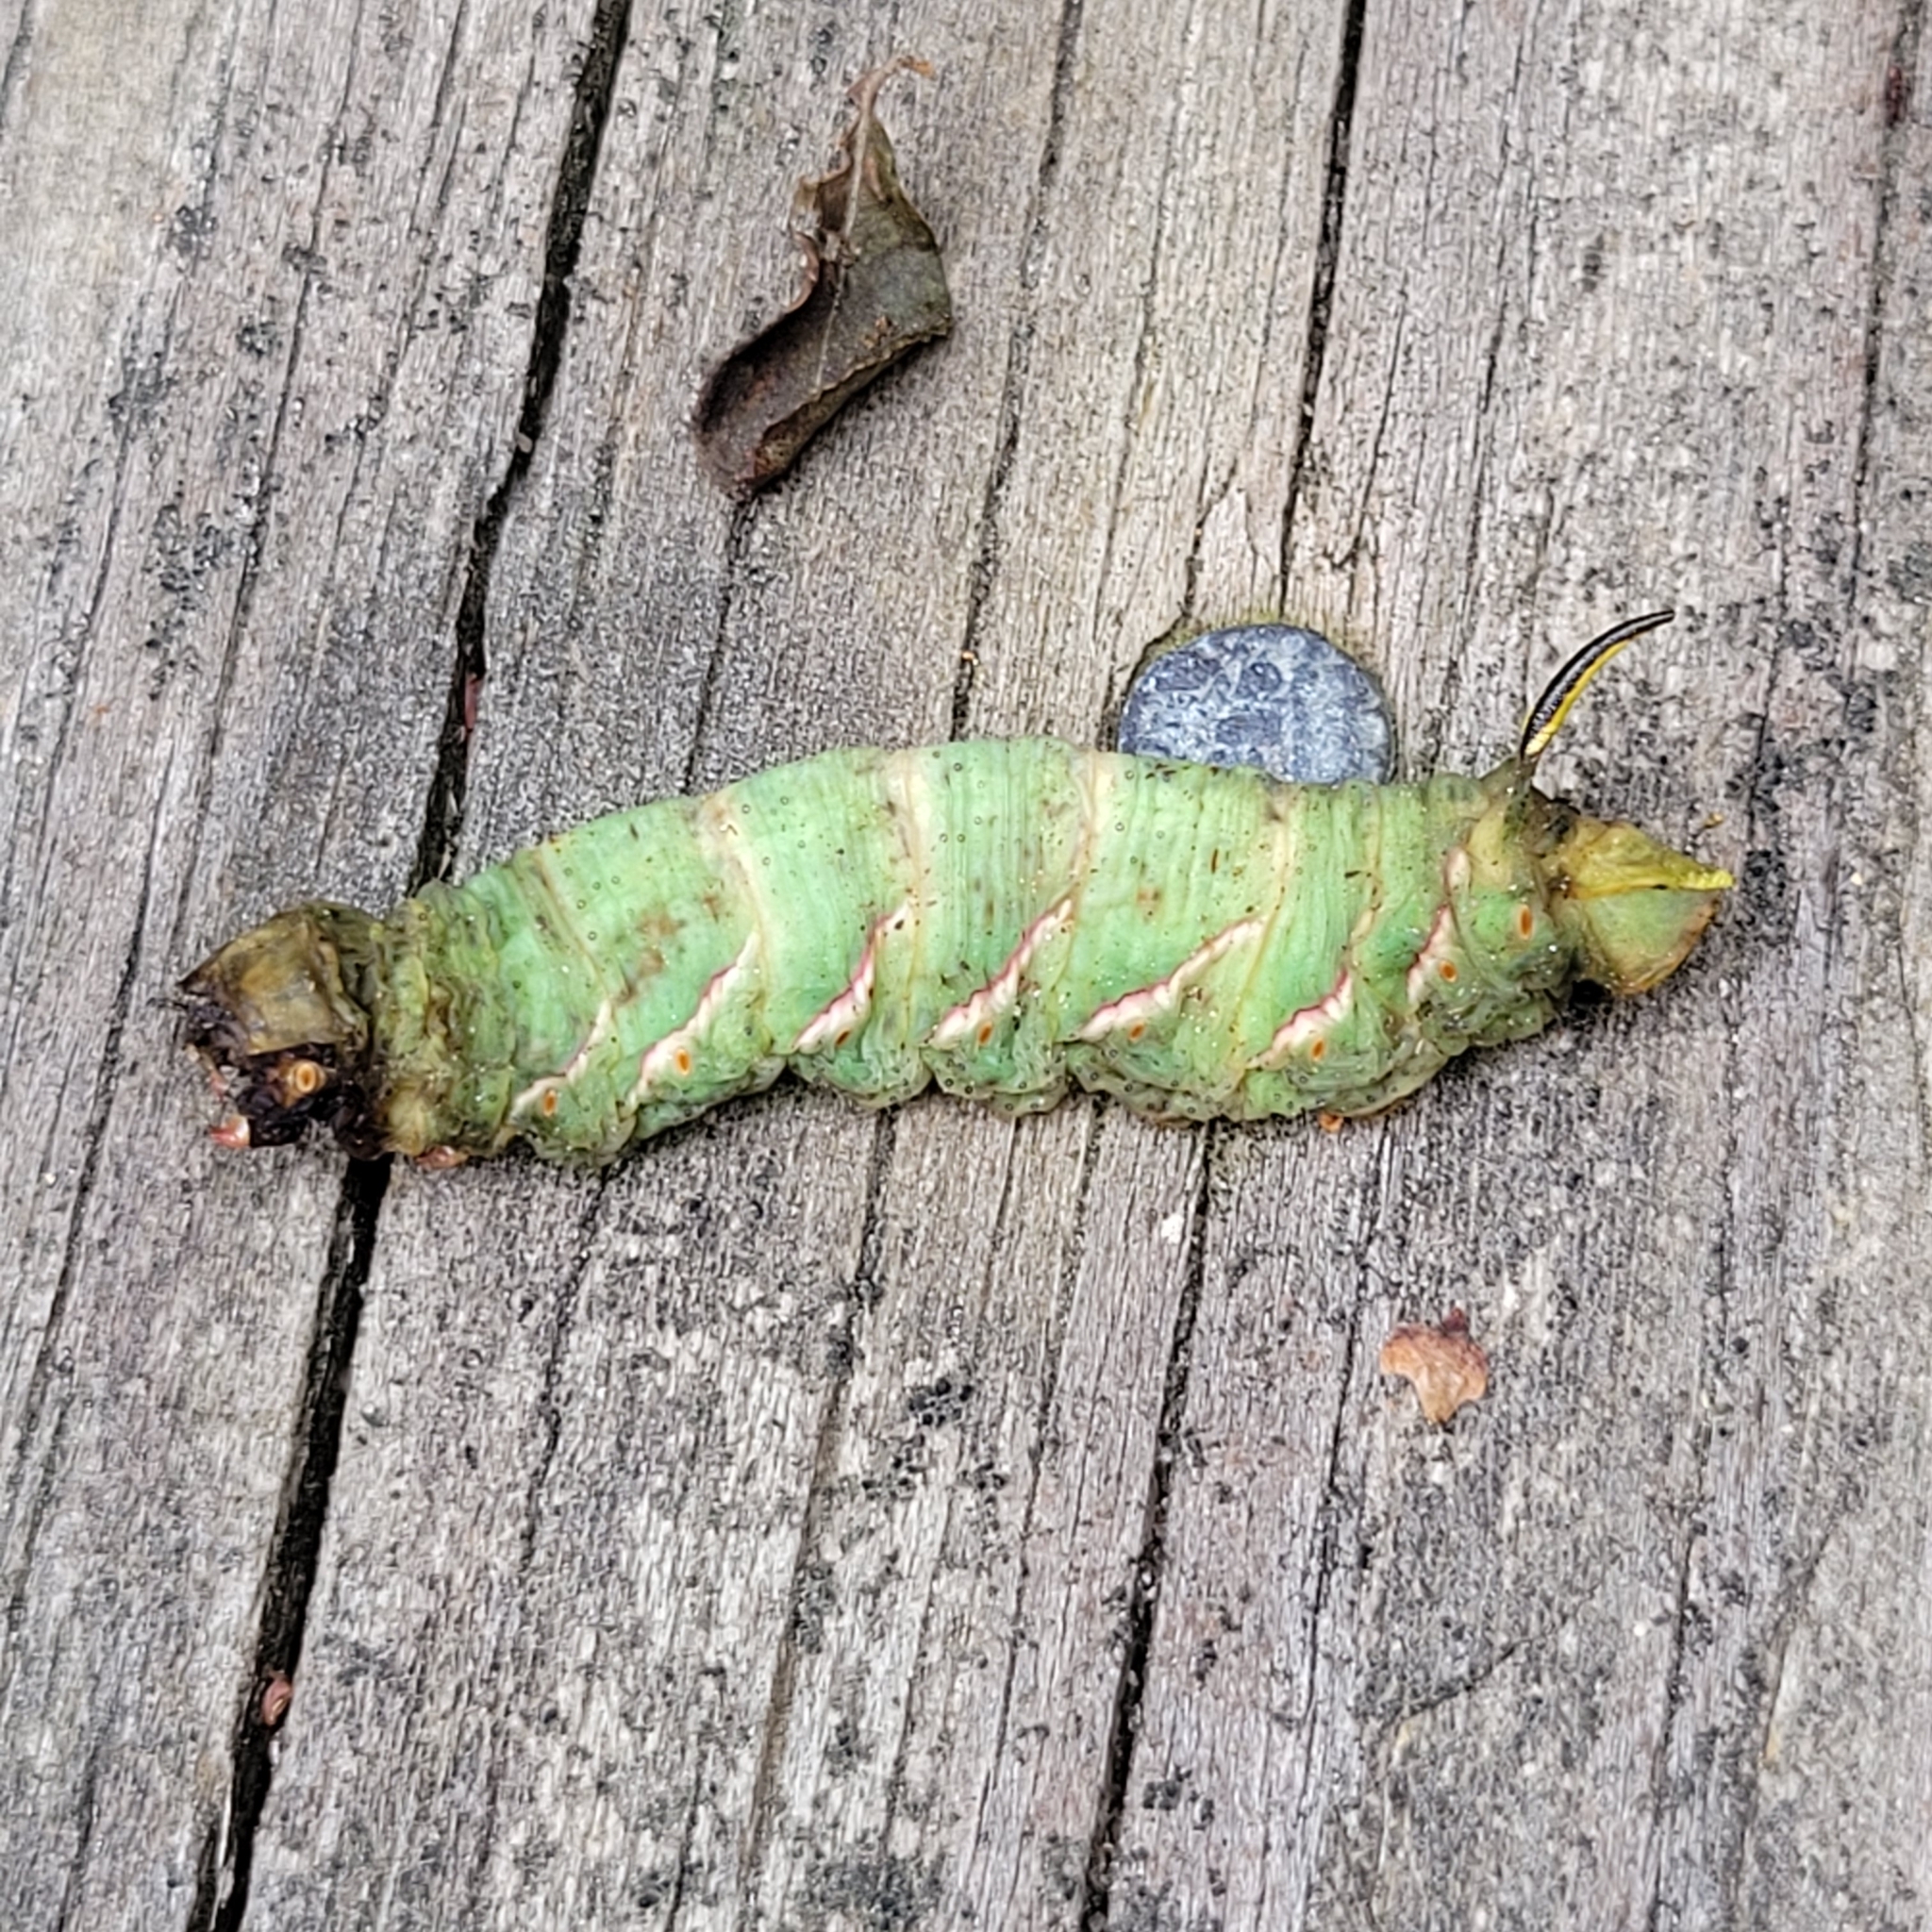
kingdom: Animalia
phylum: Arthropoda
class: Insecta
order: Lepidoptera
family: Sphingidae
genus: Sphinx
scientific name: Sphinx poecila
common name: Northern apple sphinx
